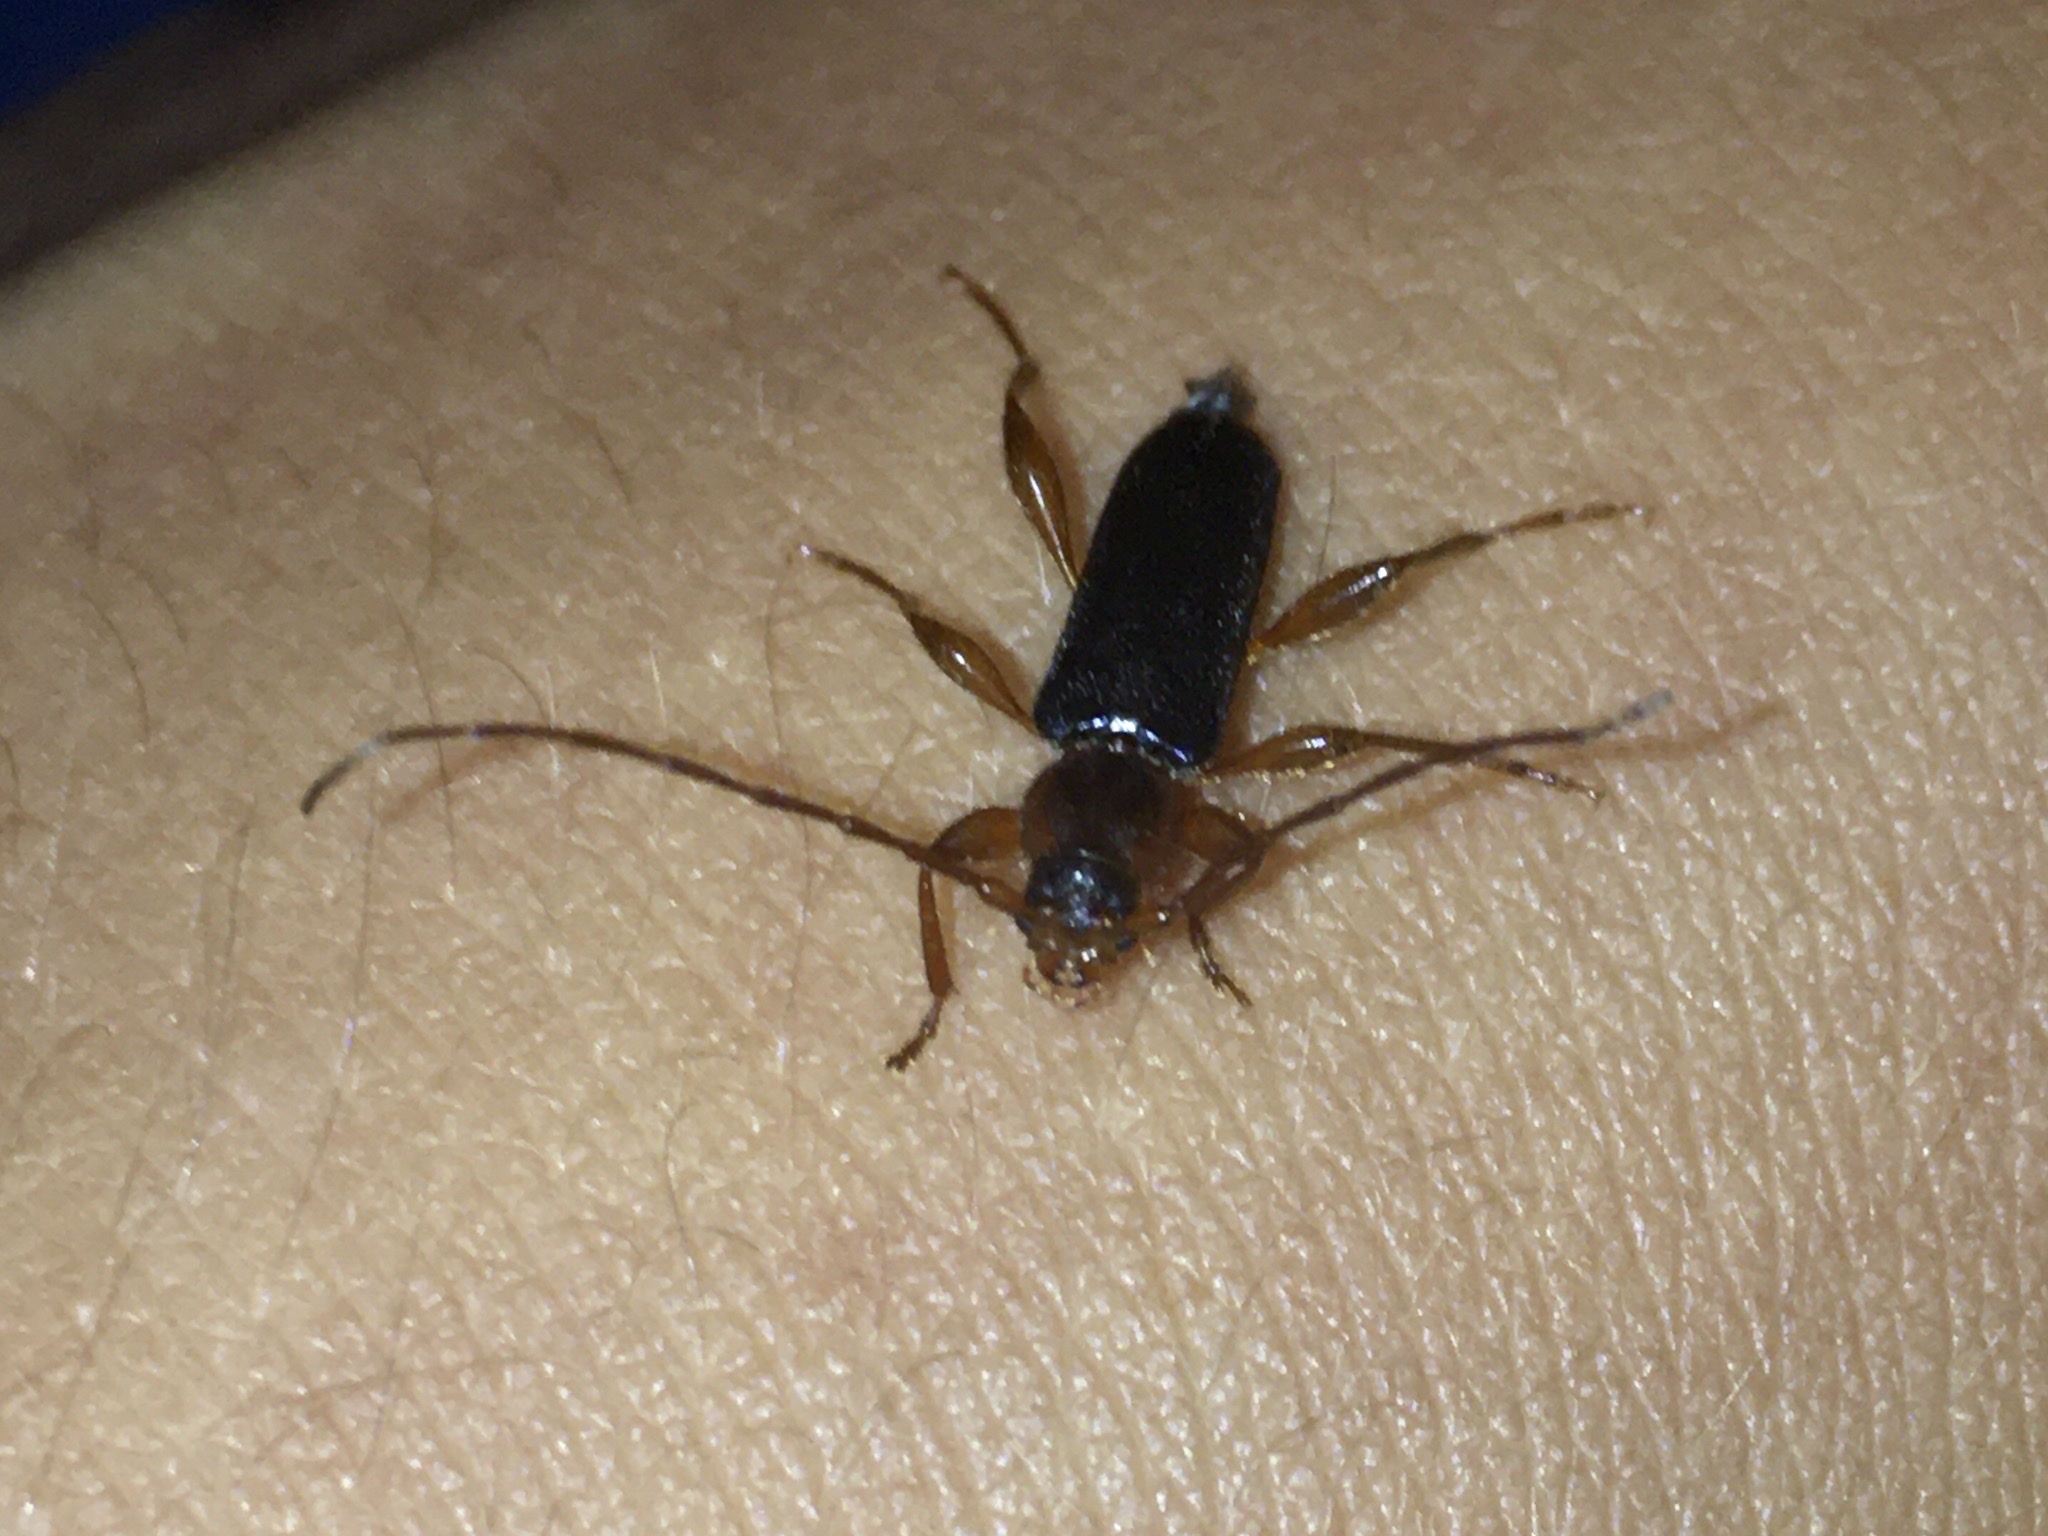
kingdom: Animalia
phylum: Arthropoda
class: Insecta
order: Coleoptera
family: Cerambycidae
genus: Phymatodes
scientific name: Phymatodes testaceus
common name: Long-horned beetle
